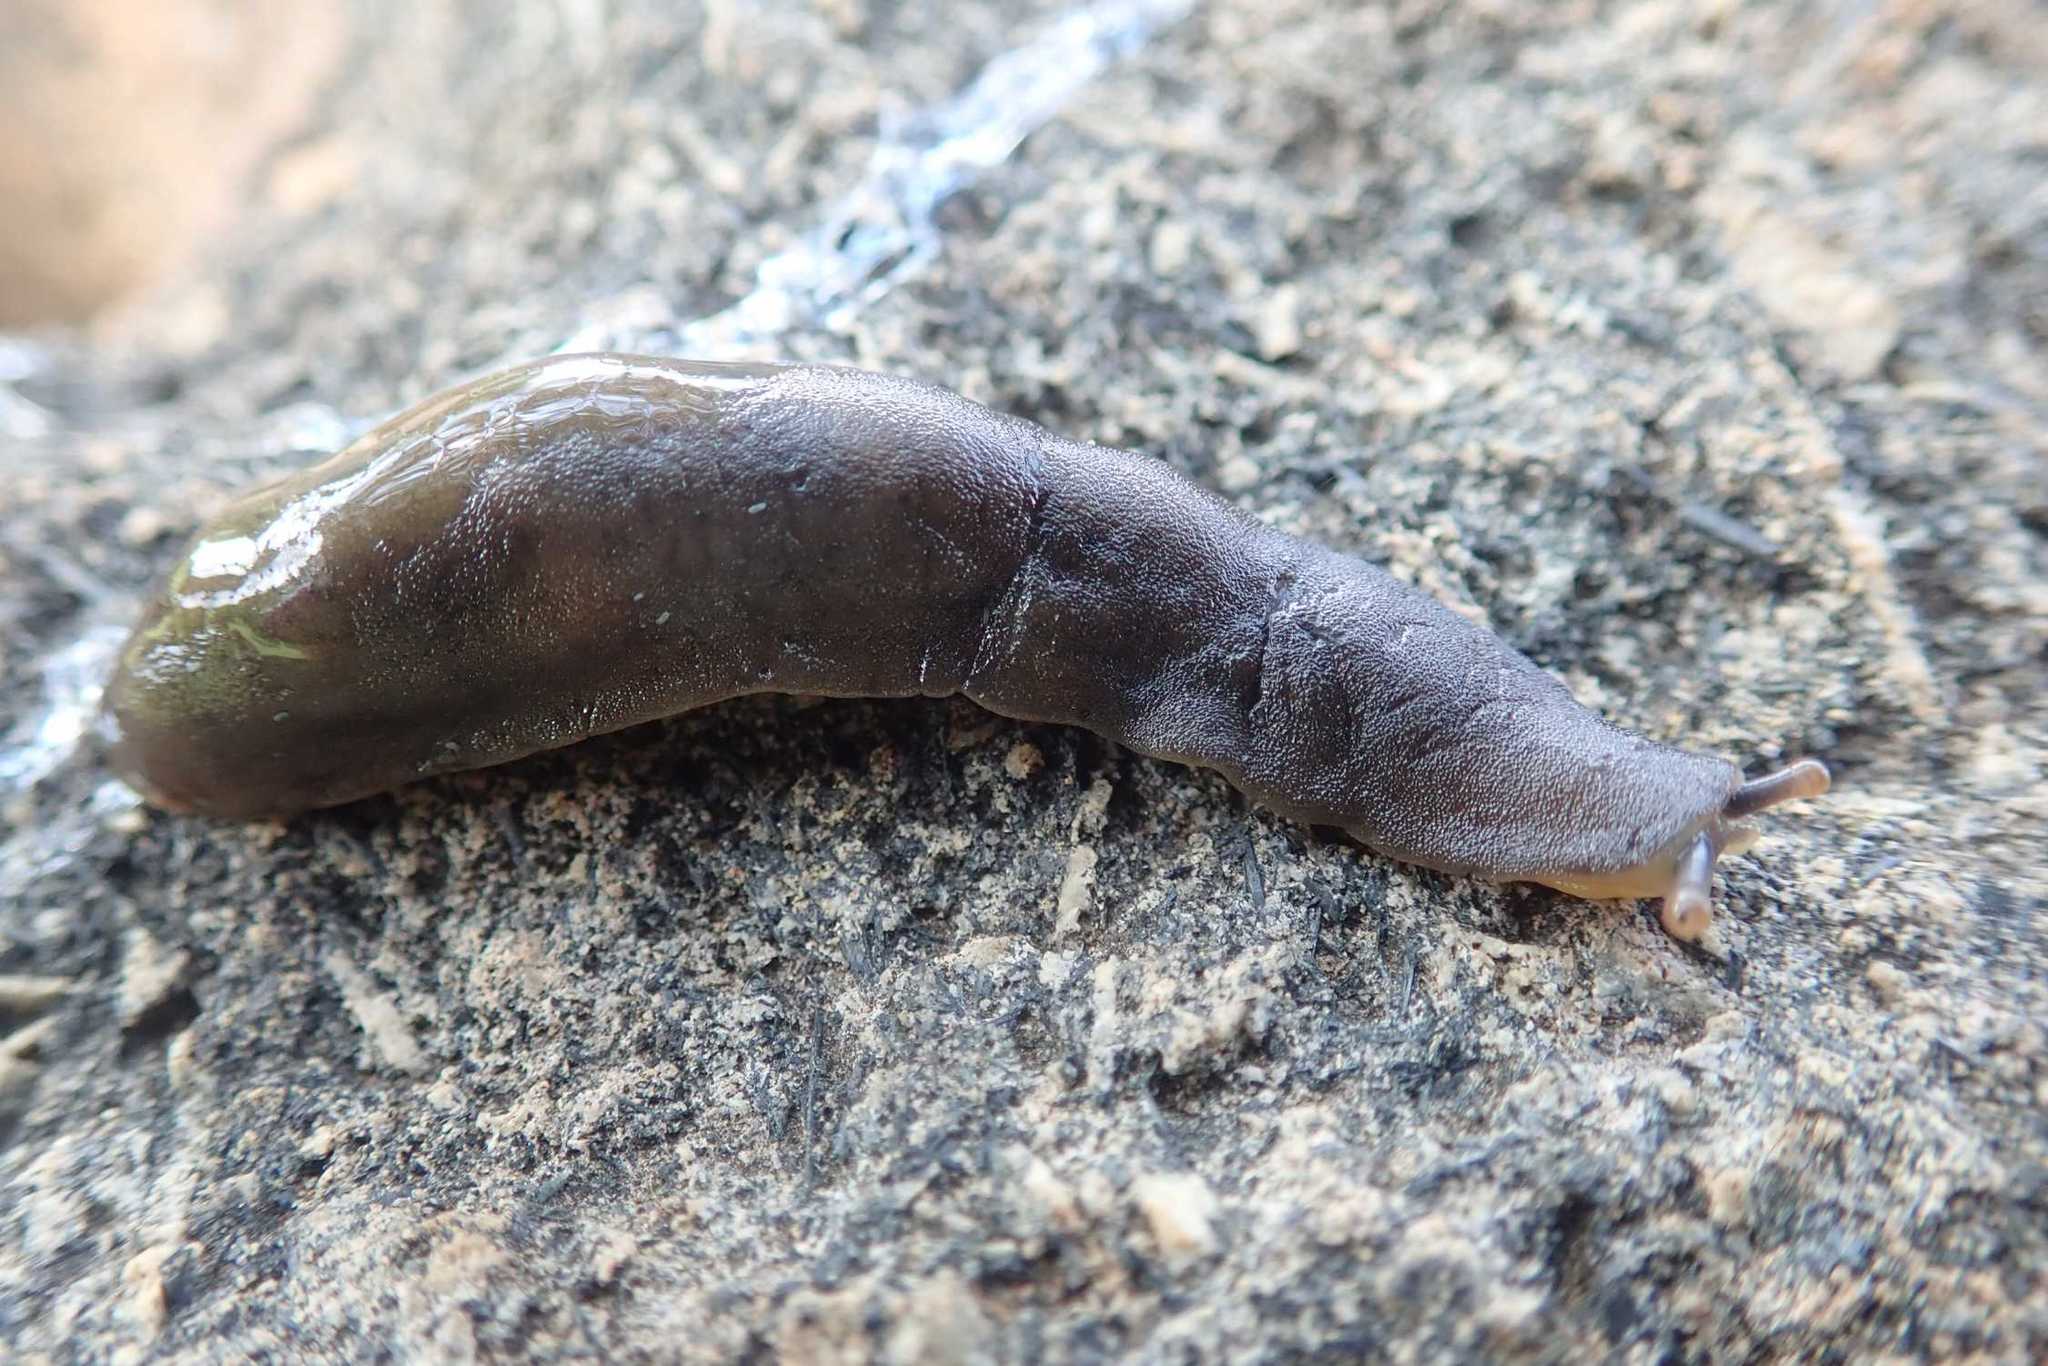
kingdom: Animalia
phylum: Mollusca
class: Gastropoda
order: Systellommatophora
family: Veronicellidae
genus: Laevicaulis
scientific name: Laevicaulis natalensis
